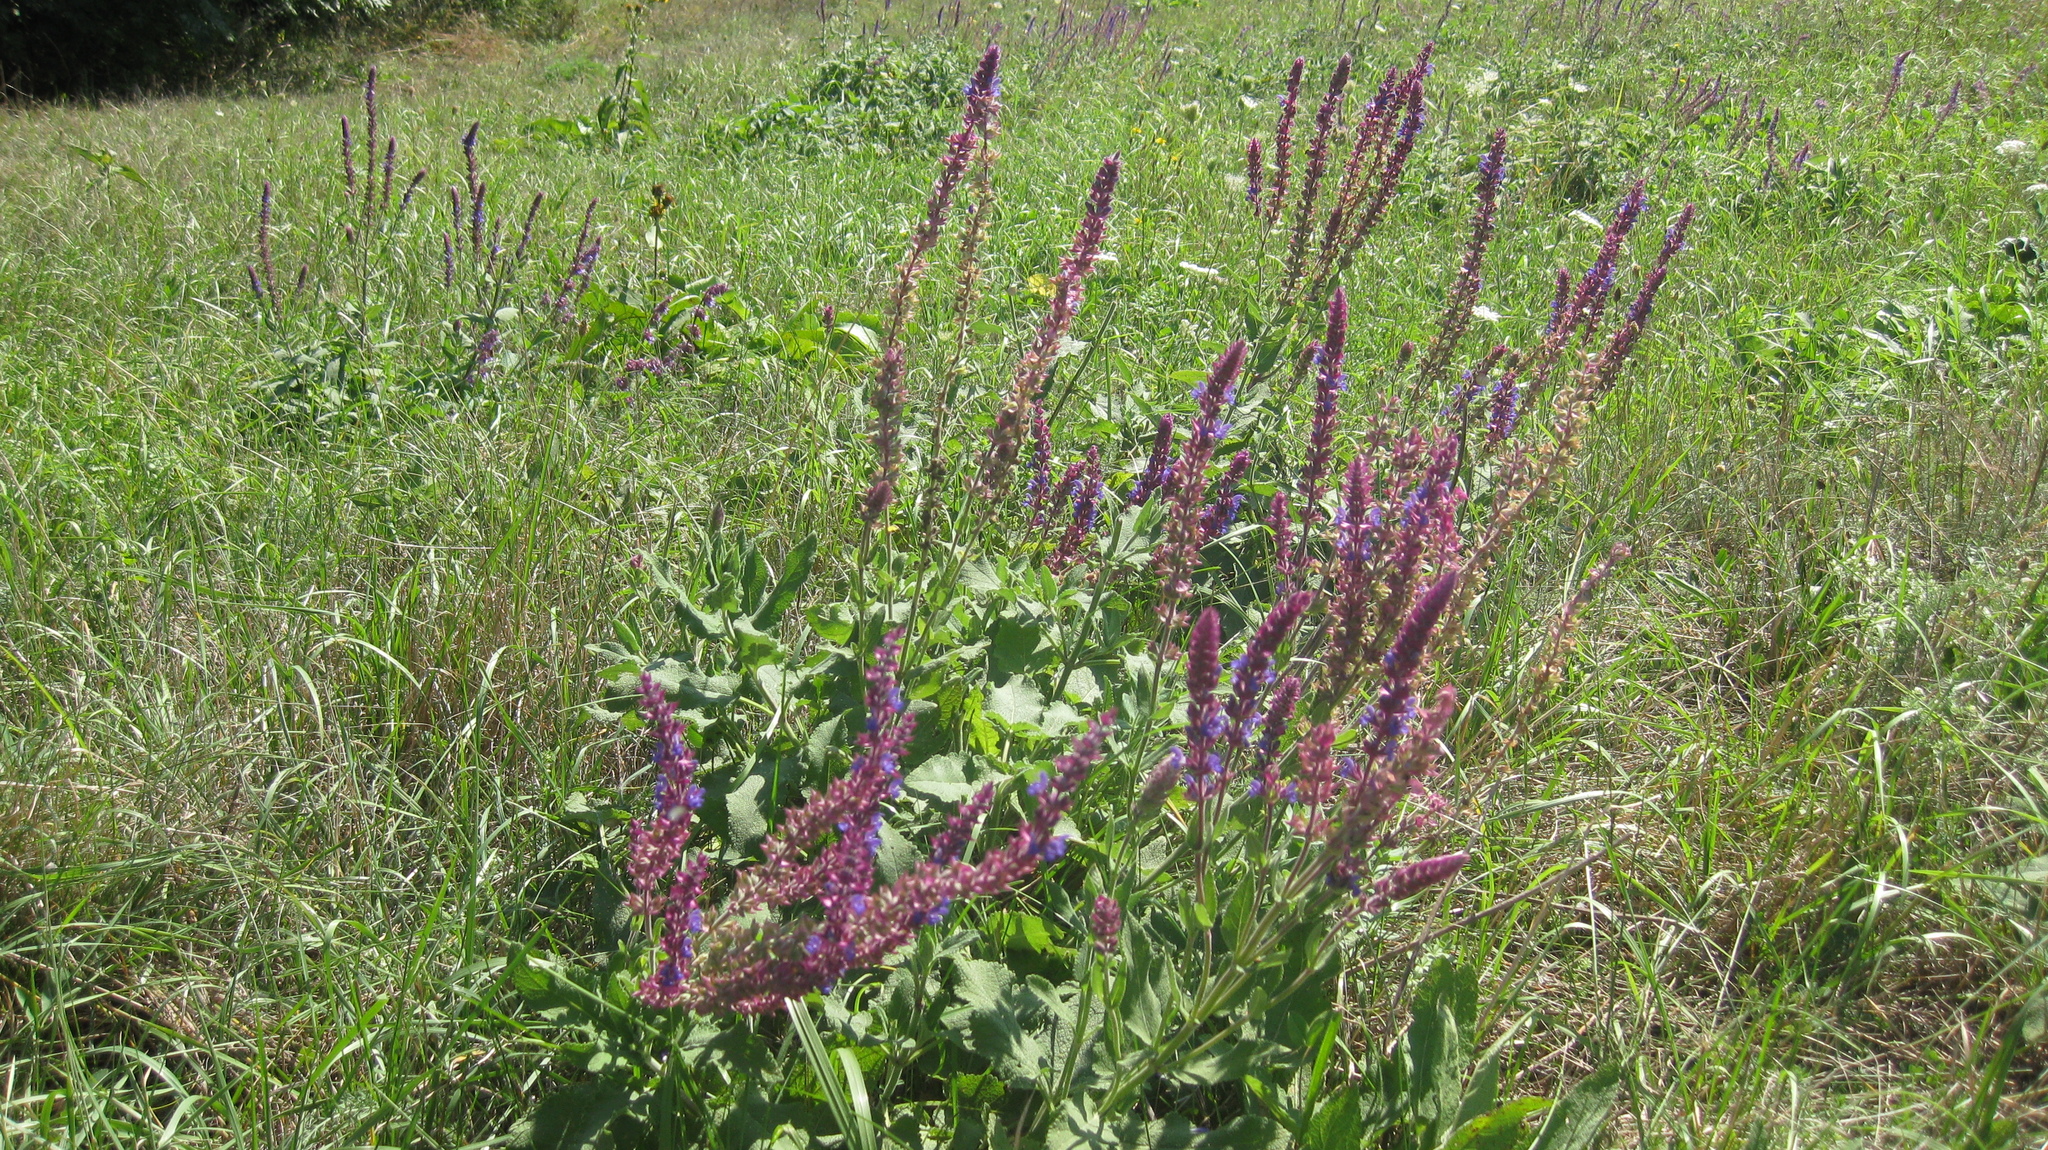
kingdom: Plantae
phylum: Tracheophyta
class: Magnoliopsida
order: Lamiales
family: Lamiaceae
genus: Salvia
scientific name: Salvia nemorosa
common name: Balkan clary
